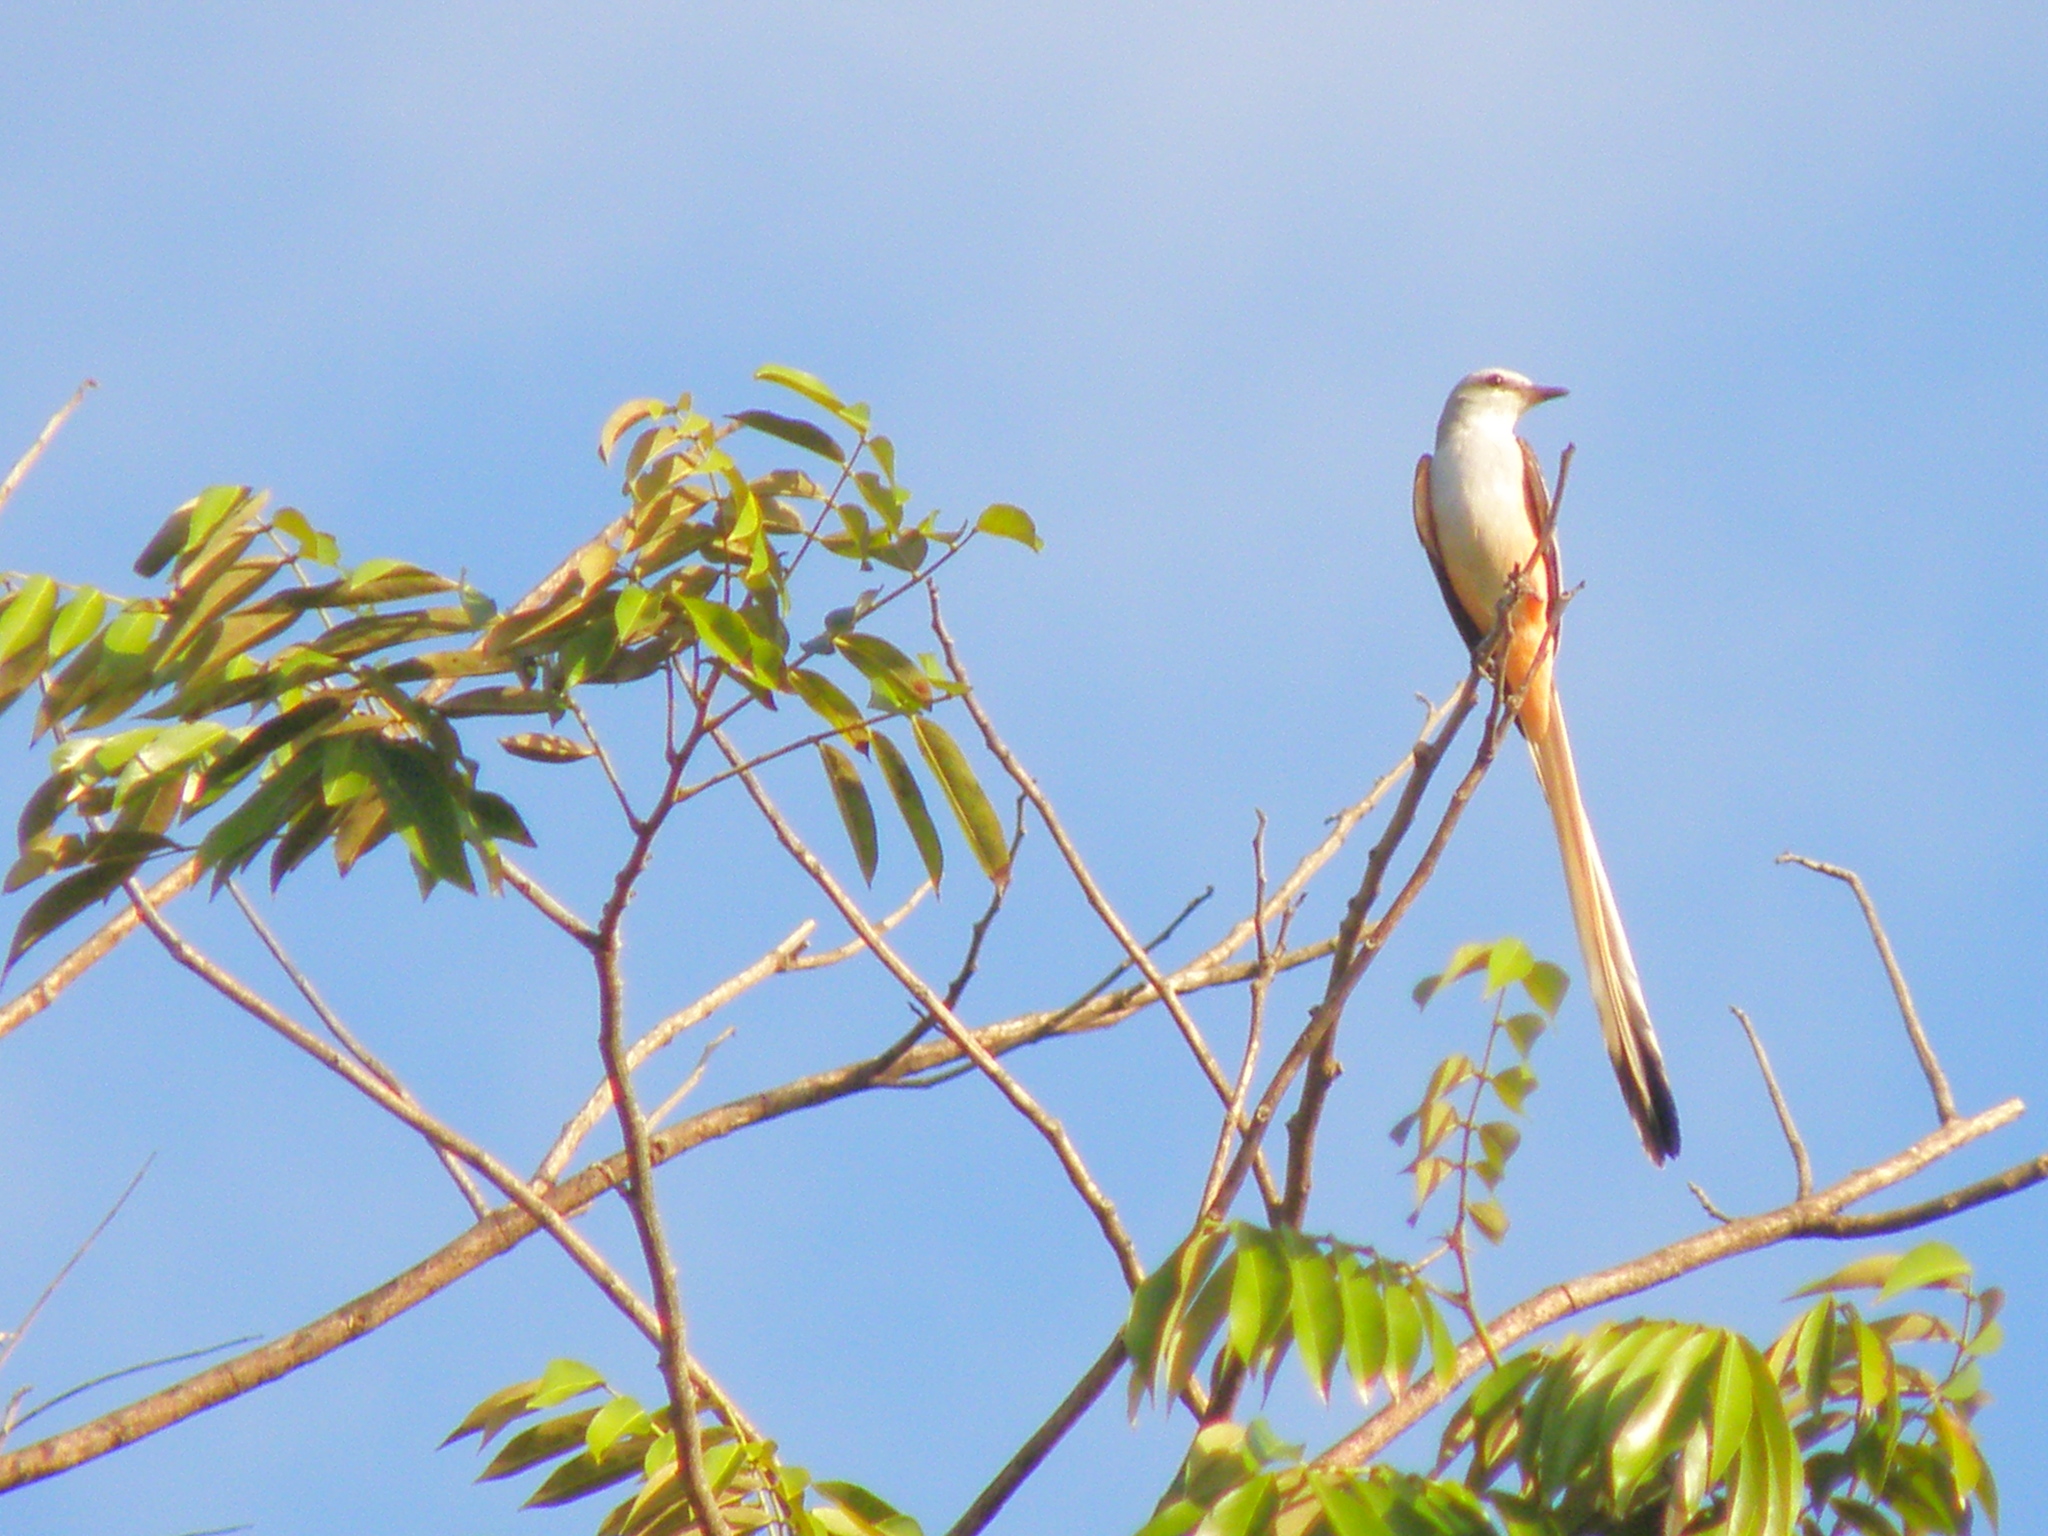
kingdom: Animalia
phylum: Chordata
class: Aves
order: Passeriformes
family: Tyrannidae
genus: Tyrannus
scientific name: Tyrannus forficatus
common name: Scissor-tailed flycatcher
